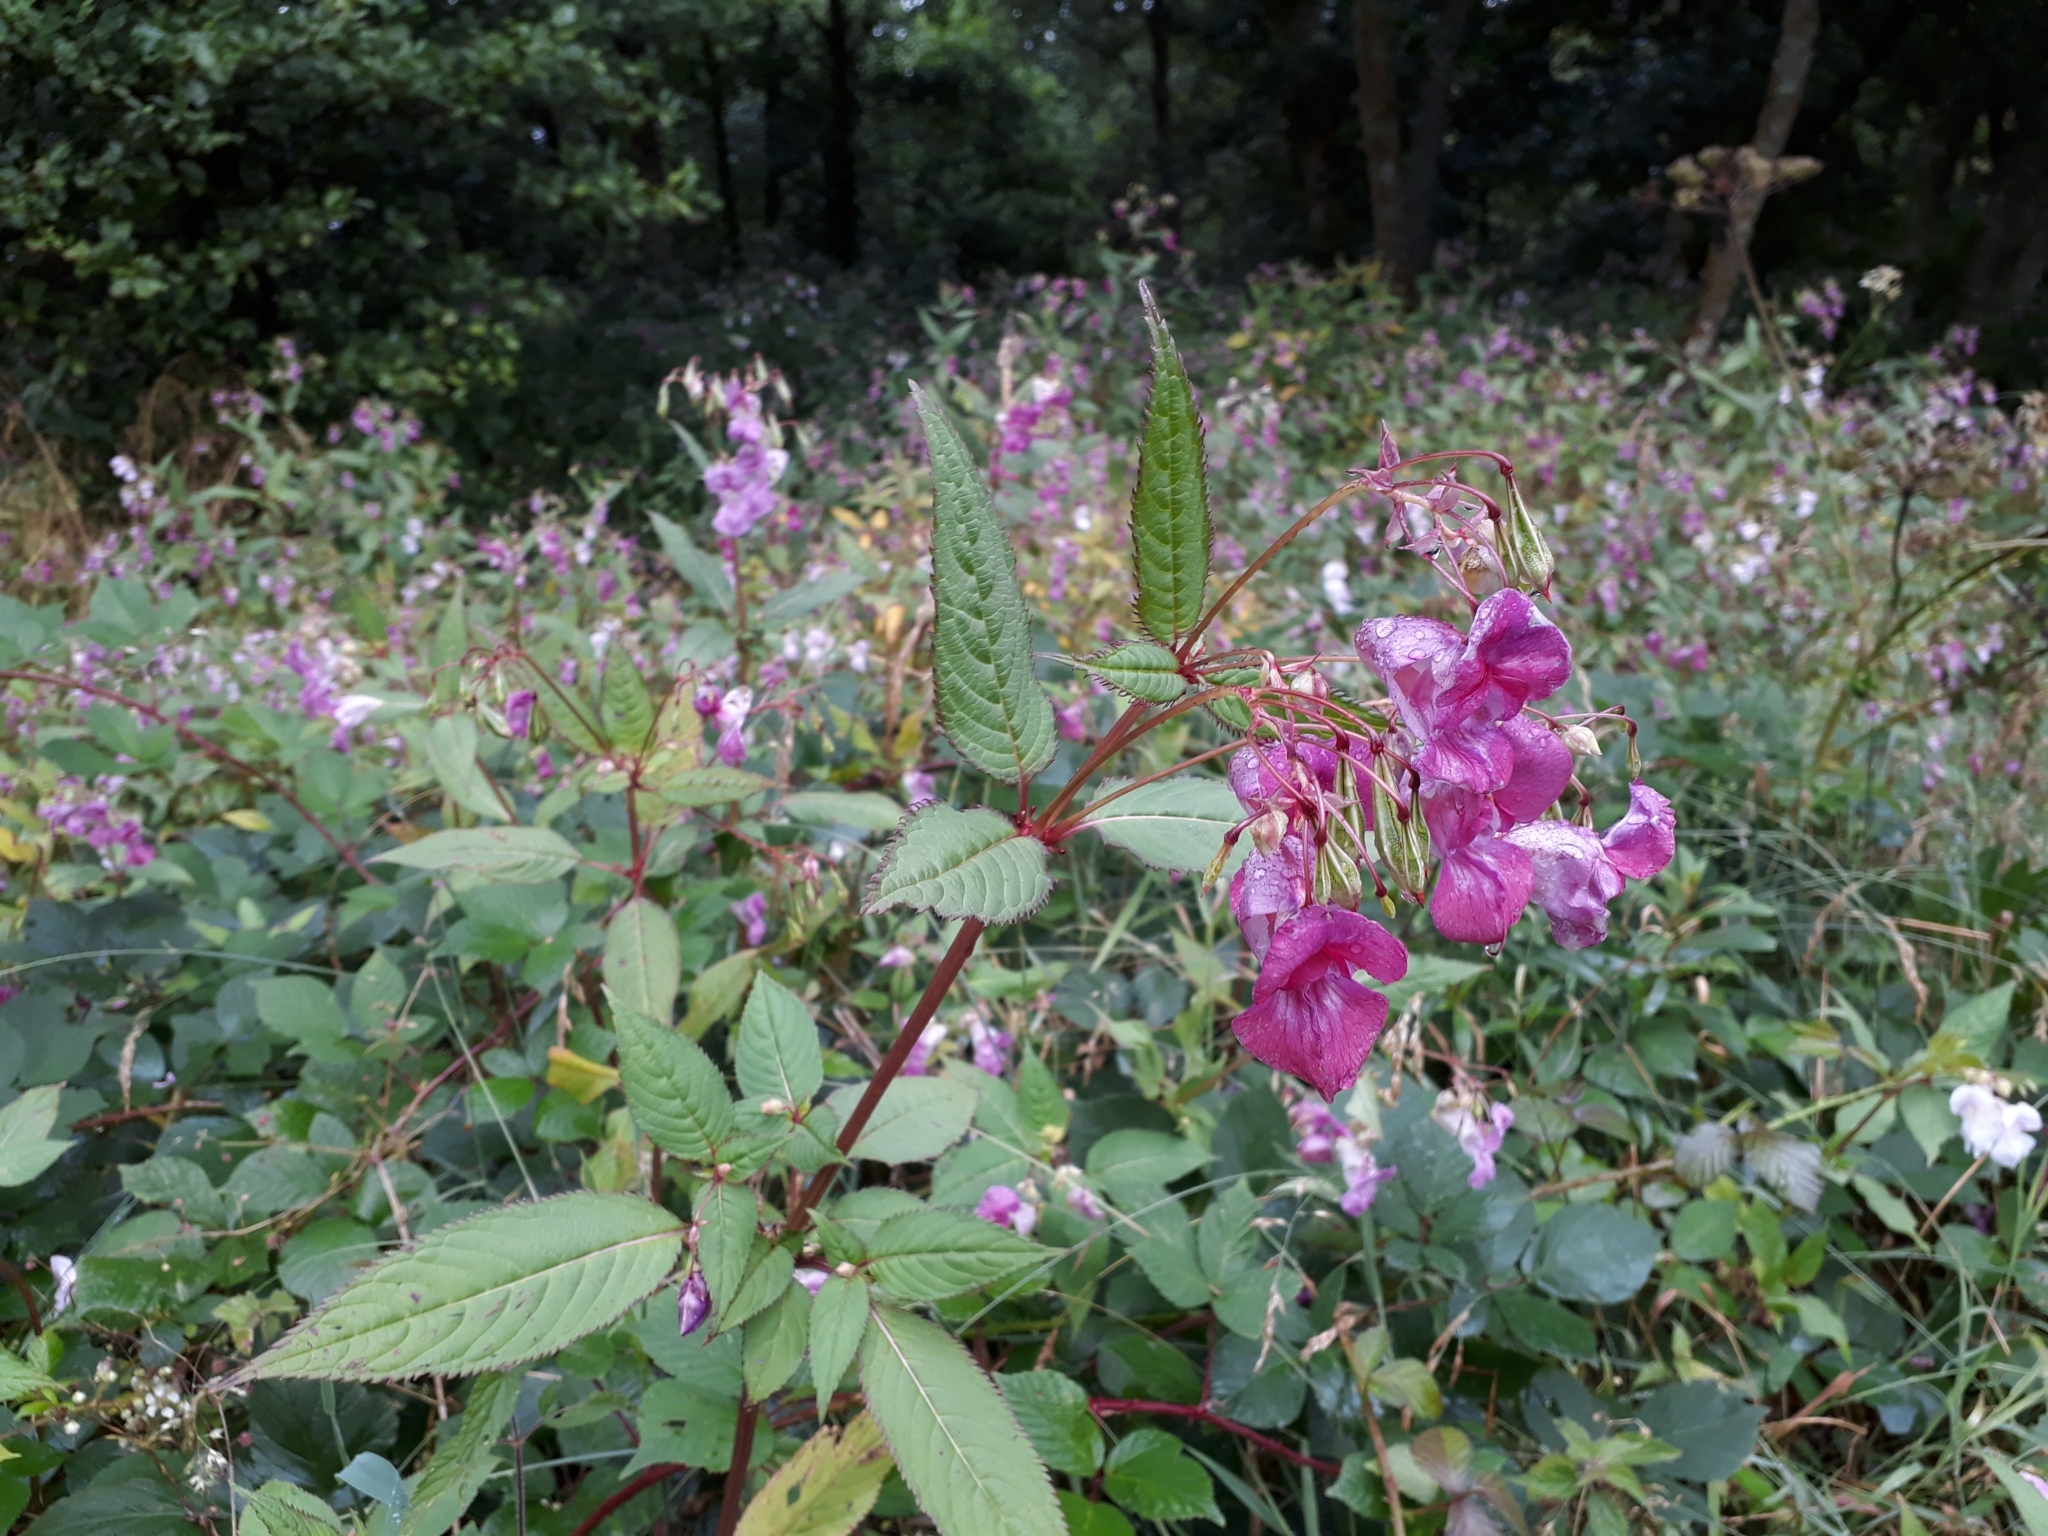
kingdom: Plantae
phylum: Tracheophyta
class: Magnoliopsida
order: Ericales
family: Balsaminaceae
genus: Impatiens
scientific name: Impatiens glandulifera
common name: Himalayan balsam
